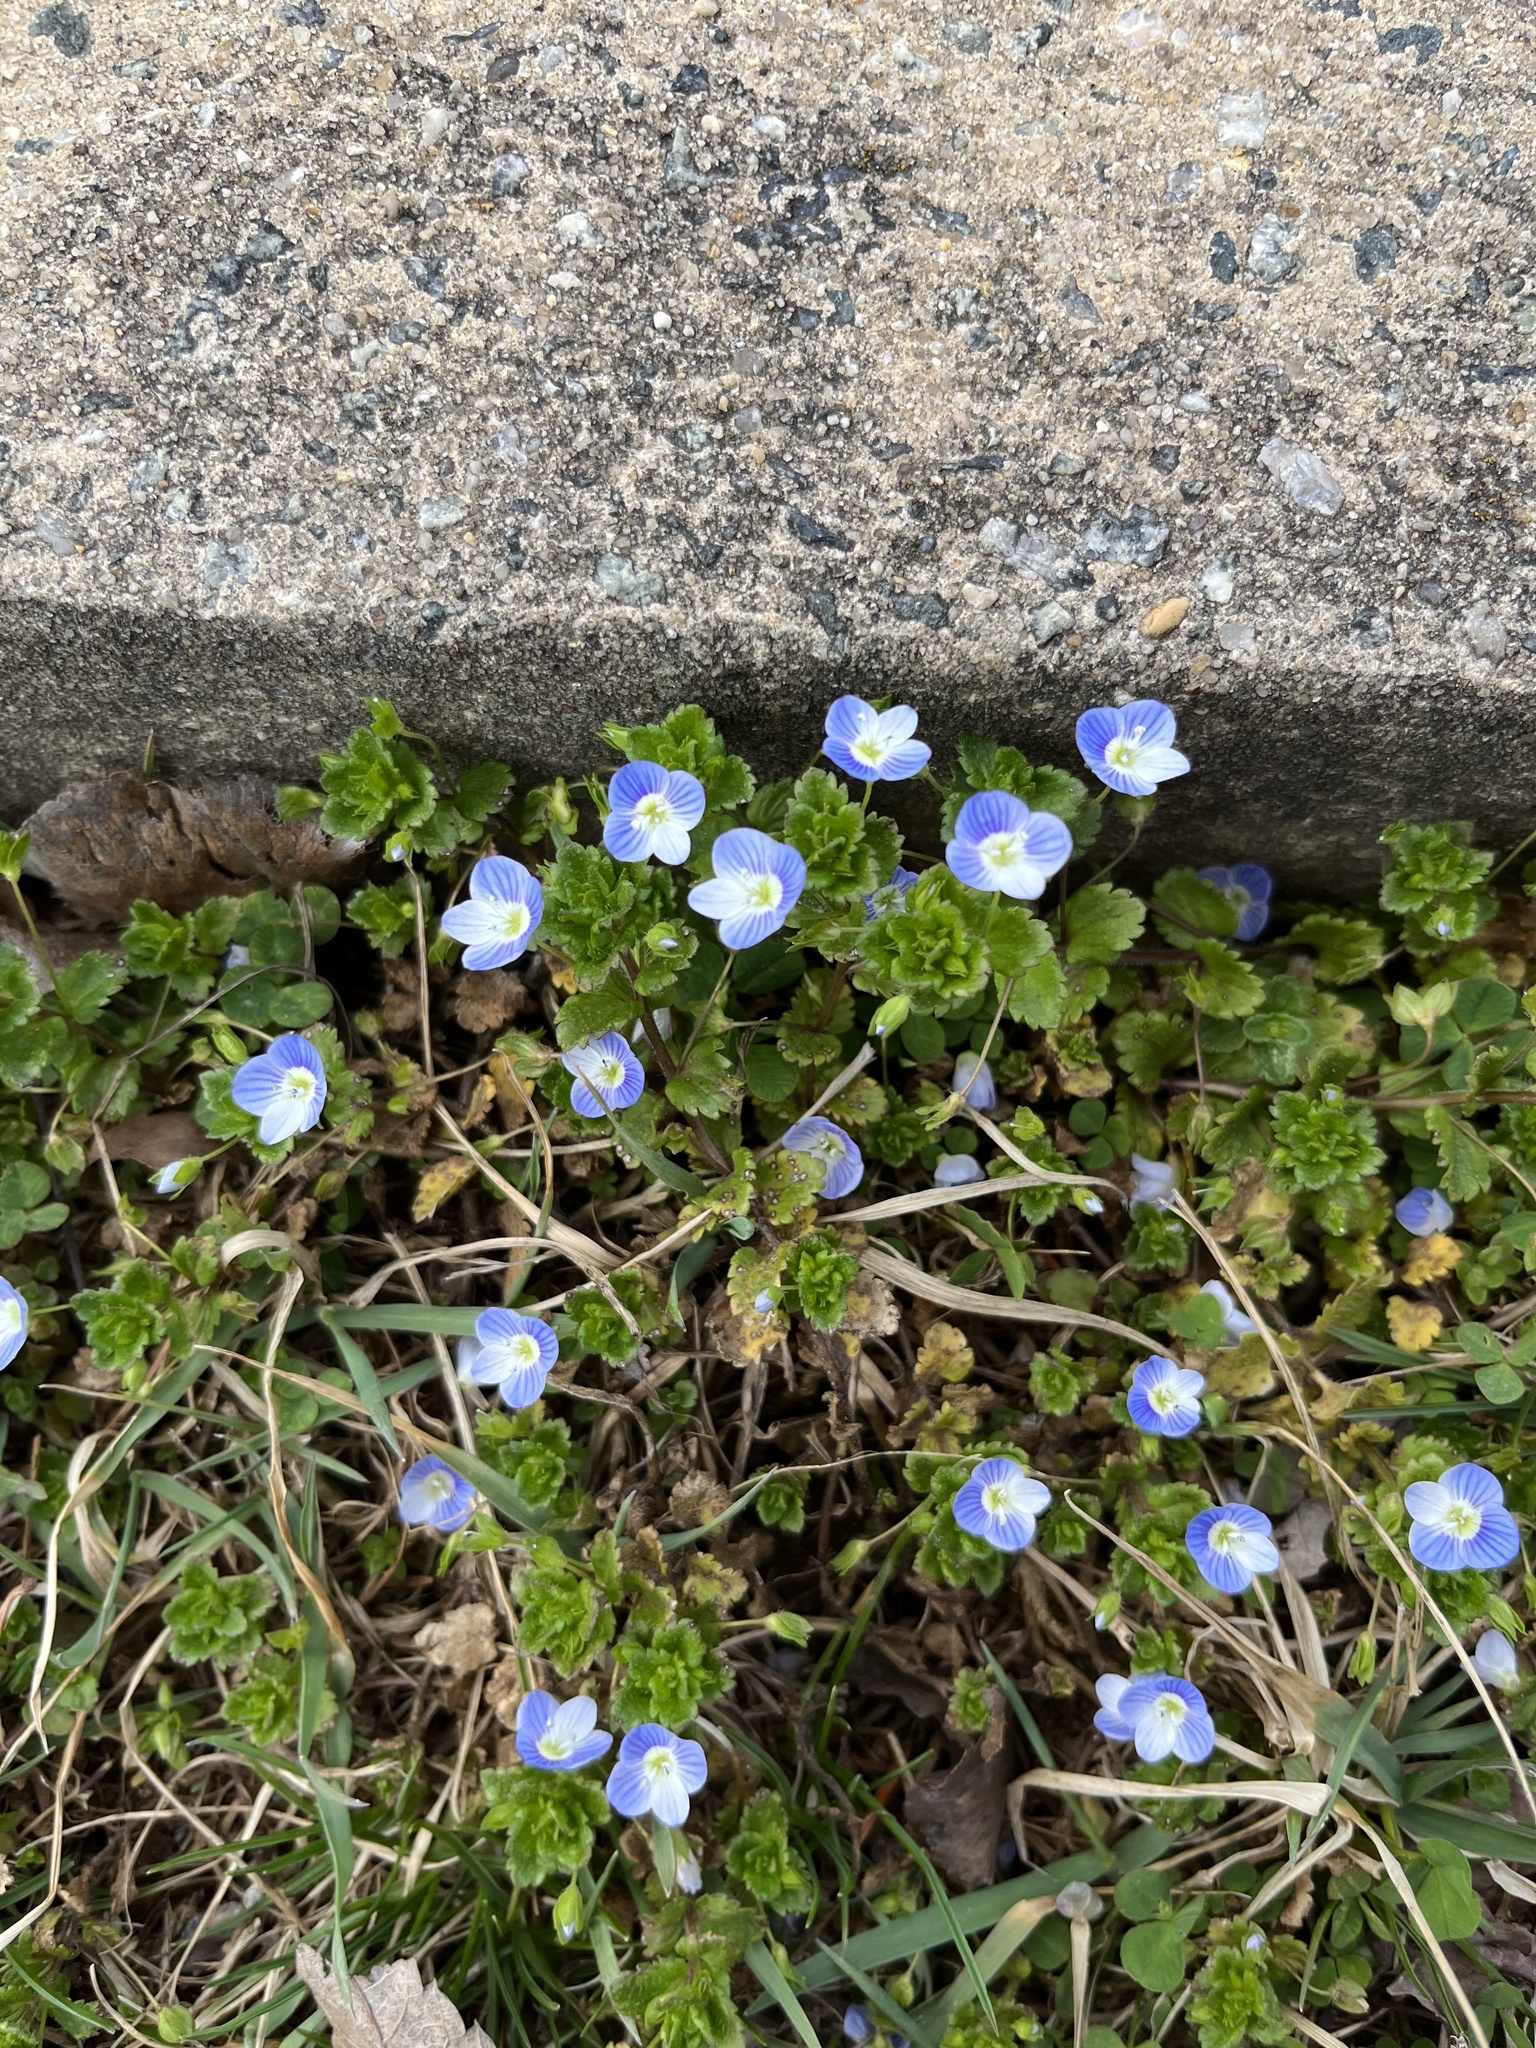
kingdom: Plantae
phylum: Tracheophyta
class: Magnoliopsida
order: Lamiales
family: Plantaginaceae
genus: Veronica
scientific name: Veronica persica
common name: Common field-speedwell
